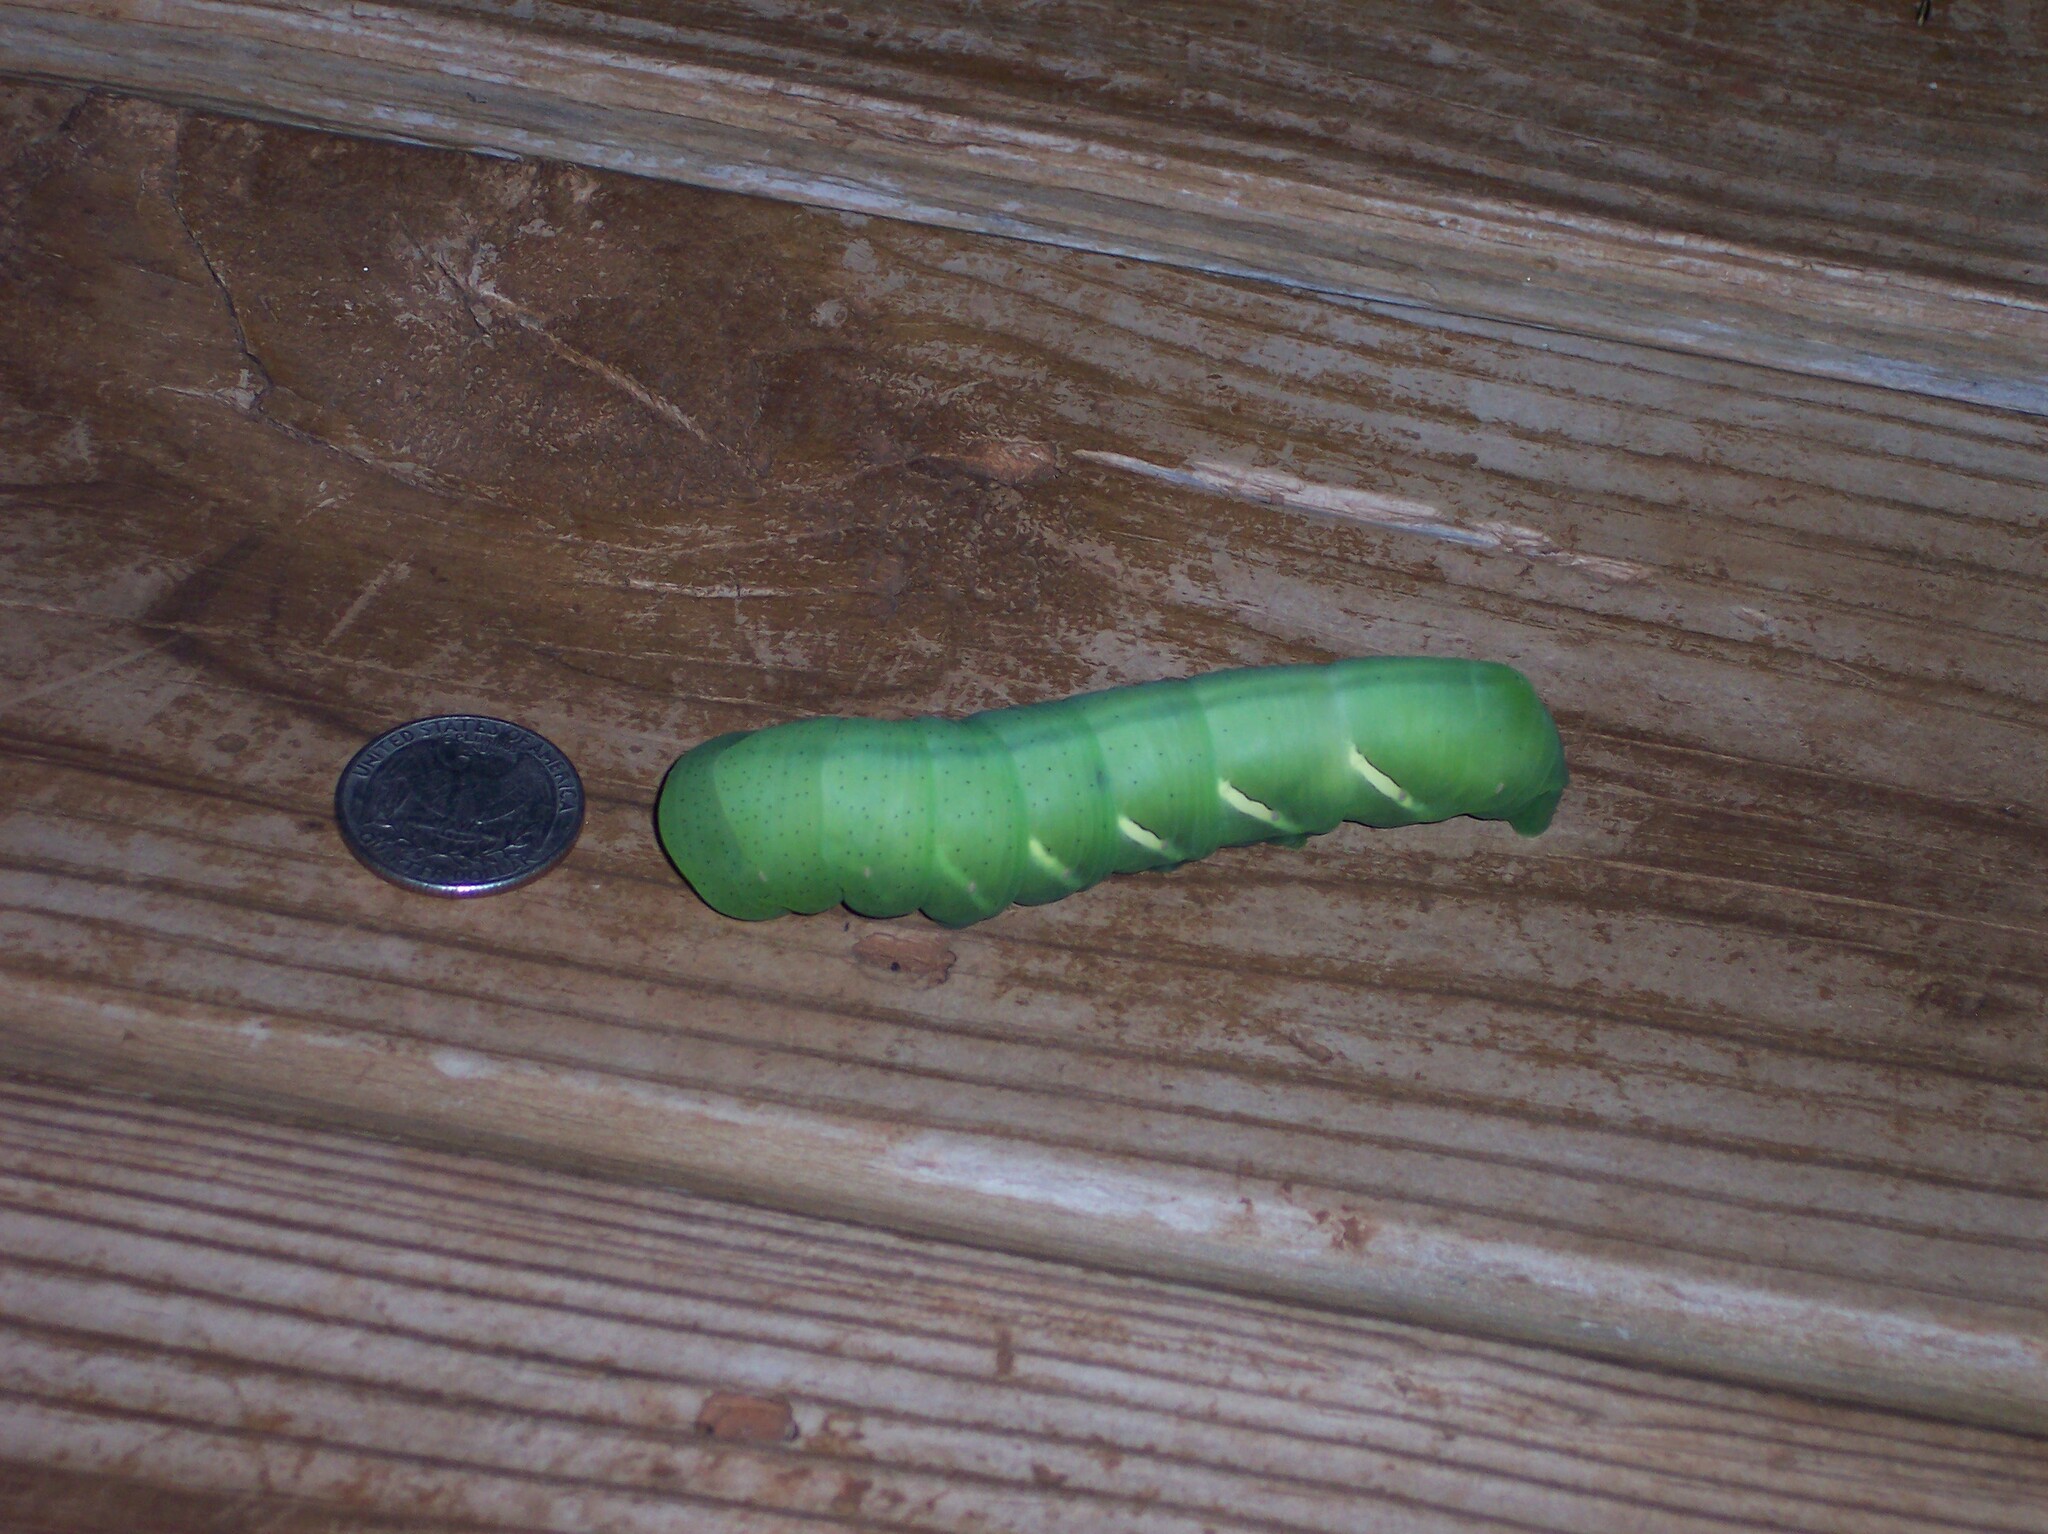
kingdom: Animalia
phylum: Arthropoda
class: Insecta
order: Lepidoptera
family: Sphingidae
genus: Eumorpha
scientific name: Eumorpha vitis
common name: Vine sphinx
